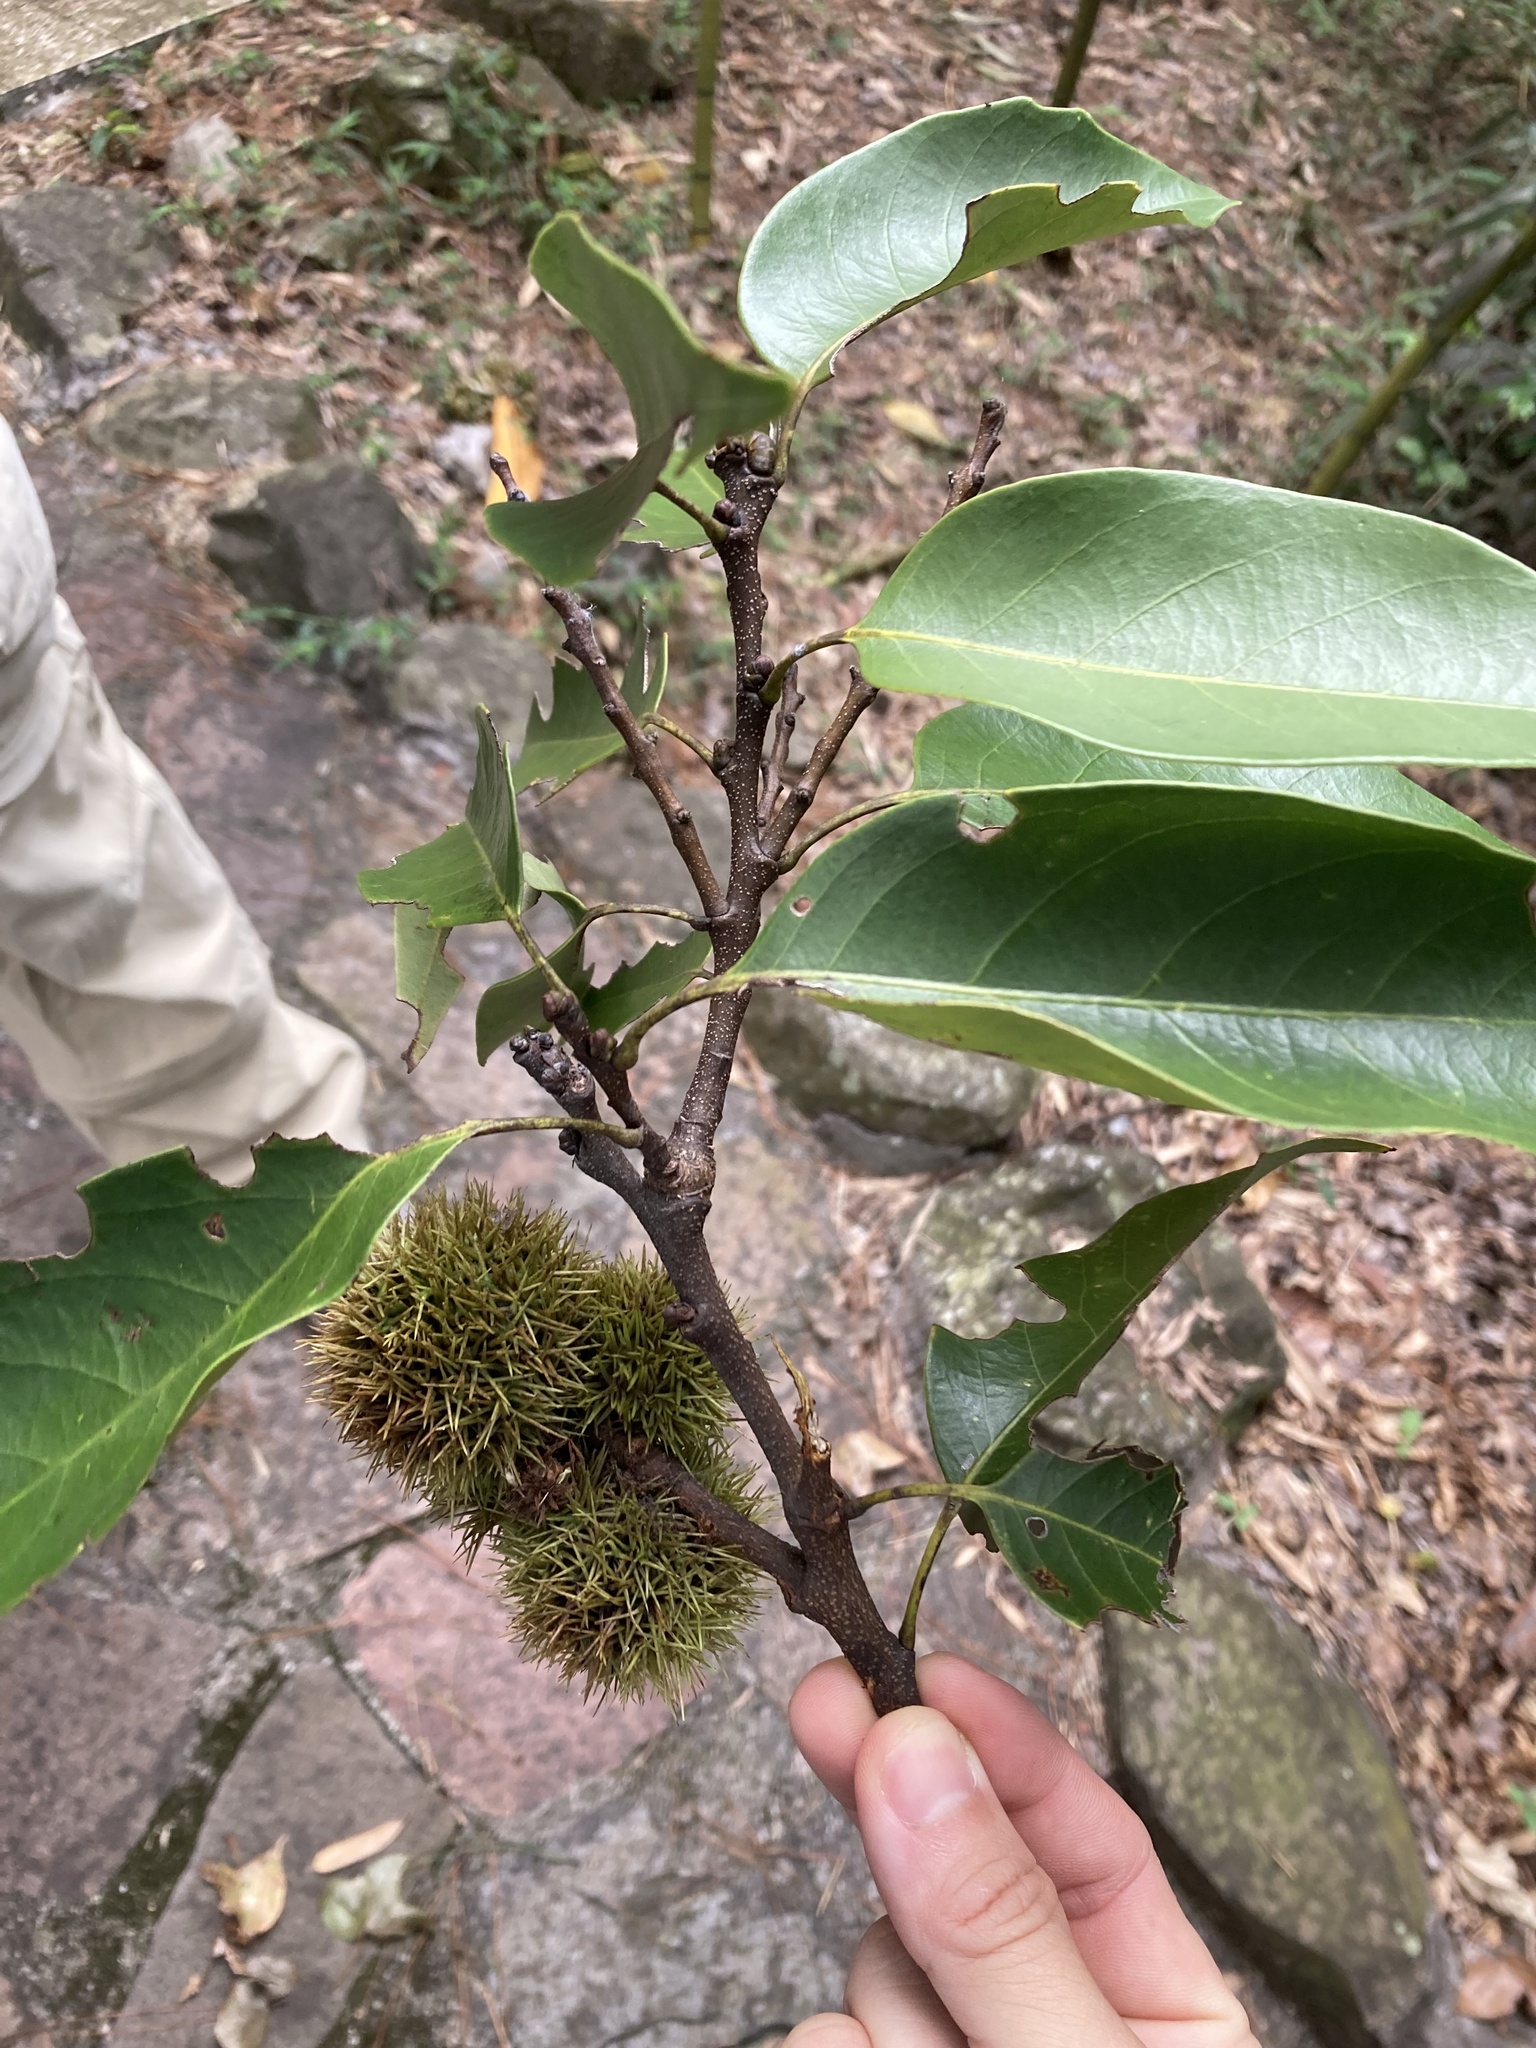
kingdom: Plantae
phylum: Tracheophyta
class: Magnoliopsida
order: Fagales
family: Fagaceae
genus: Castanopsis
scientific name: Castanopsis kawakamii
